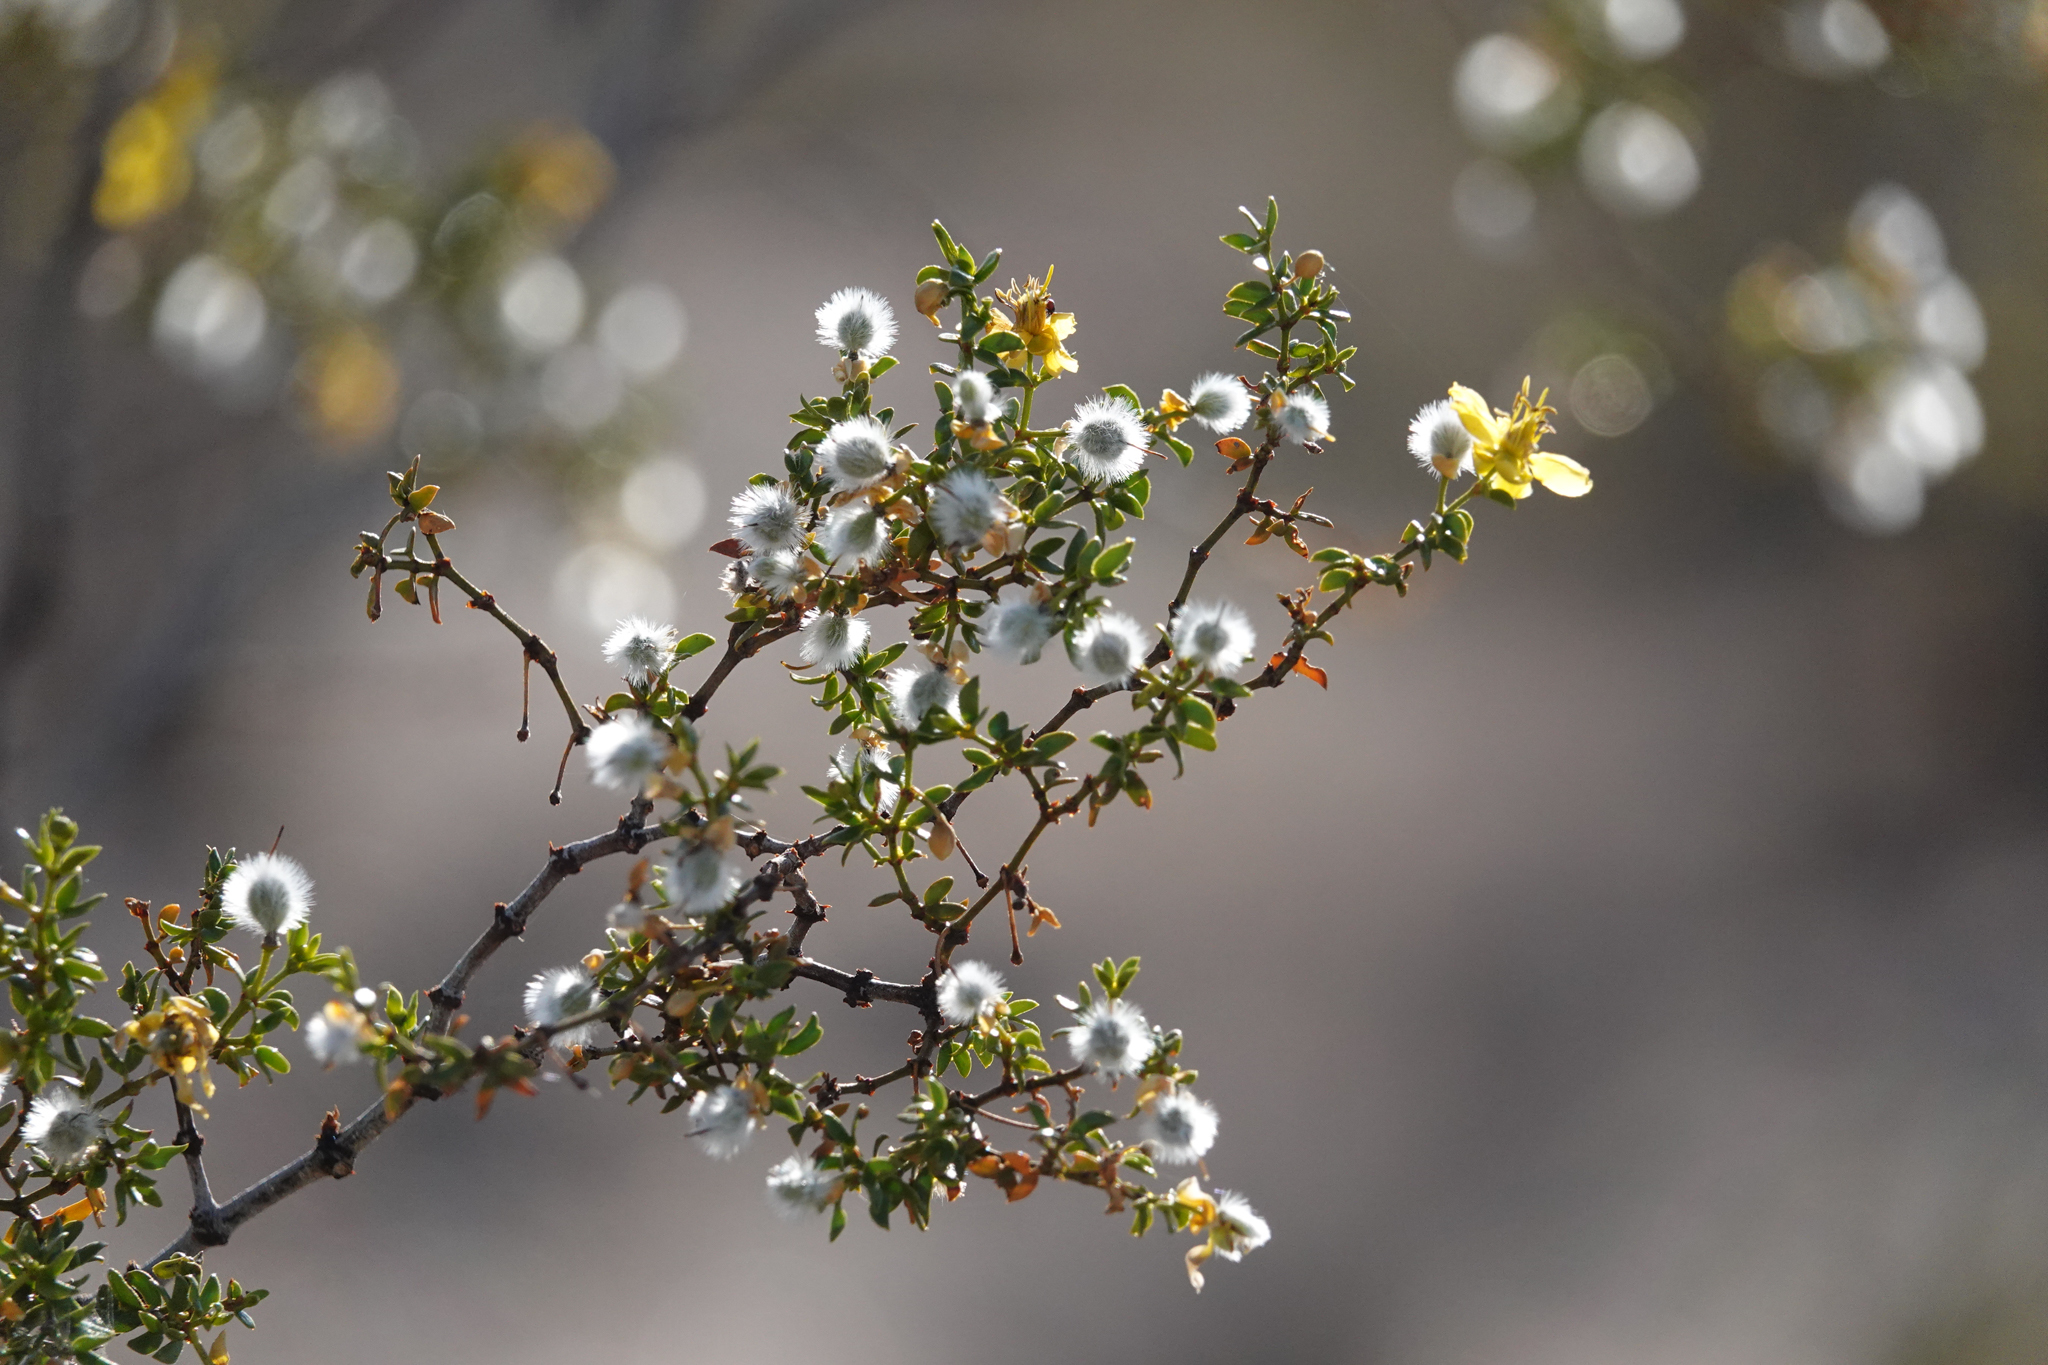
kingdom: Plantae
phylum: Tracheophyta
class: Magnoliopsida
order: Zygophyllales
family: Zygophyllaceae
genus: Larrea
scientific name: Larrea tridentata
